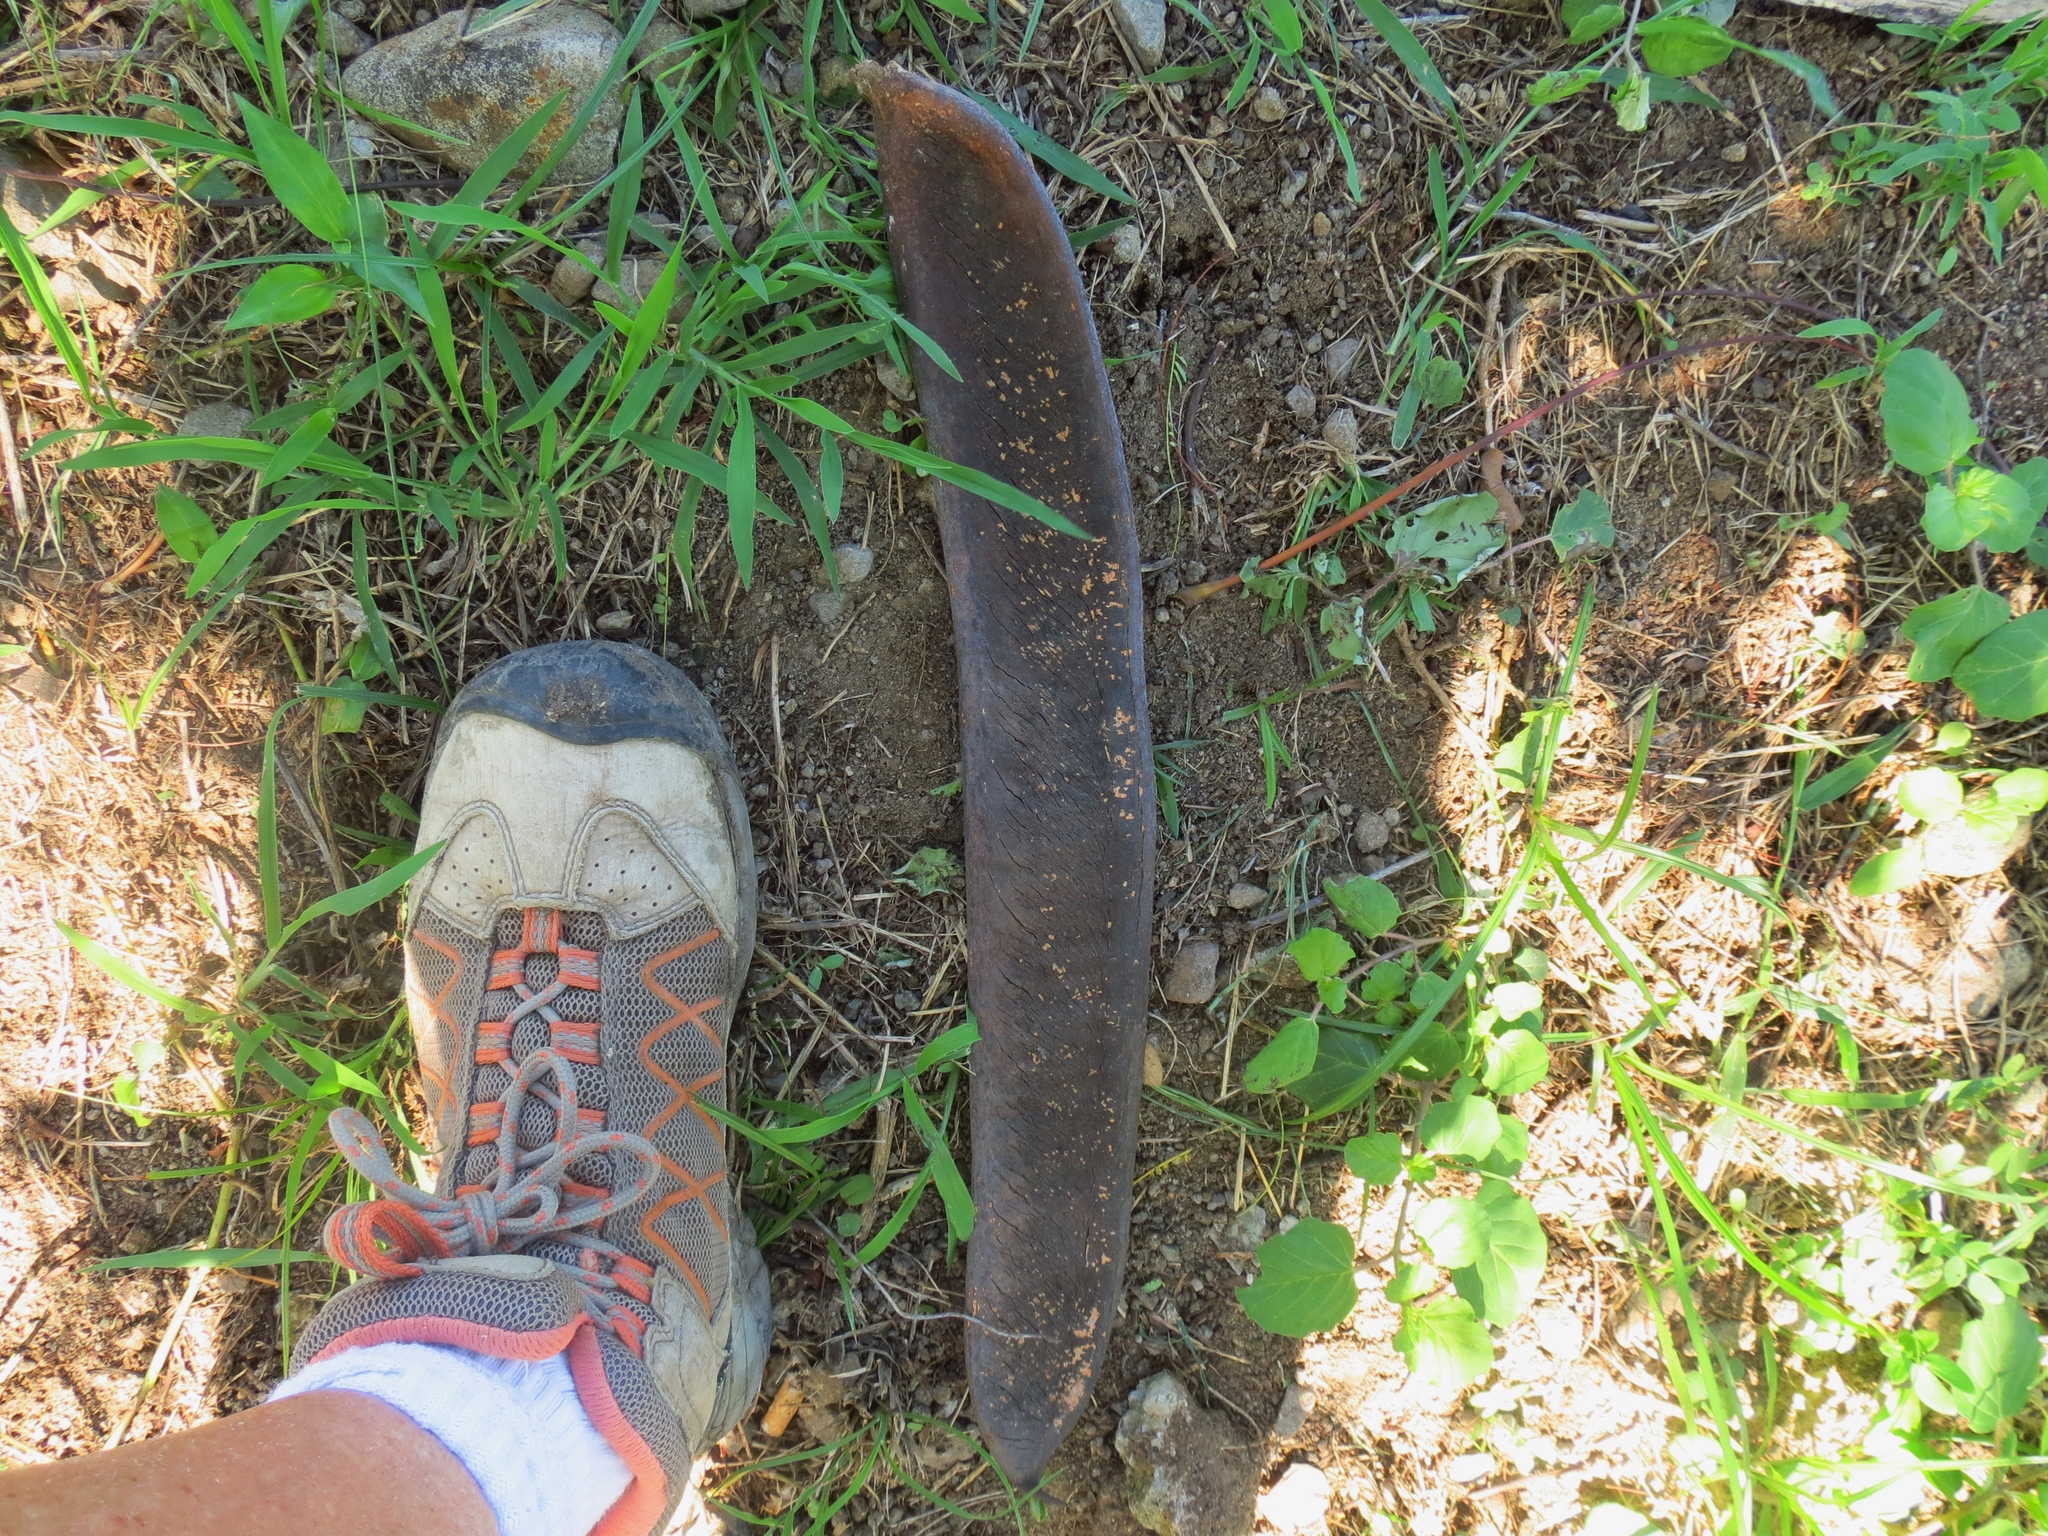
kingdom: Plantae
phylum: Tracheophyta
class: Magnoliopsida
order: Fabales
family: Fabaceae
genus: Delonix
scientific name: Delonix regia
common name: Royal poinciana
